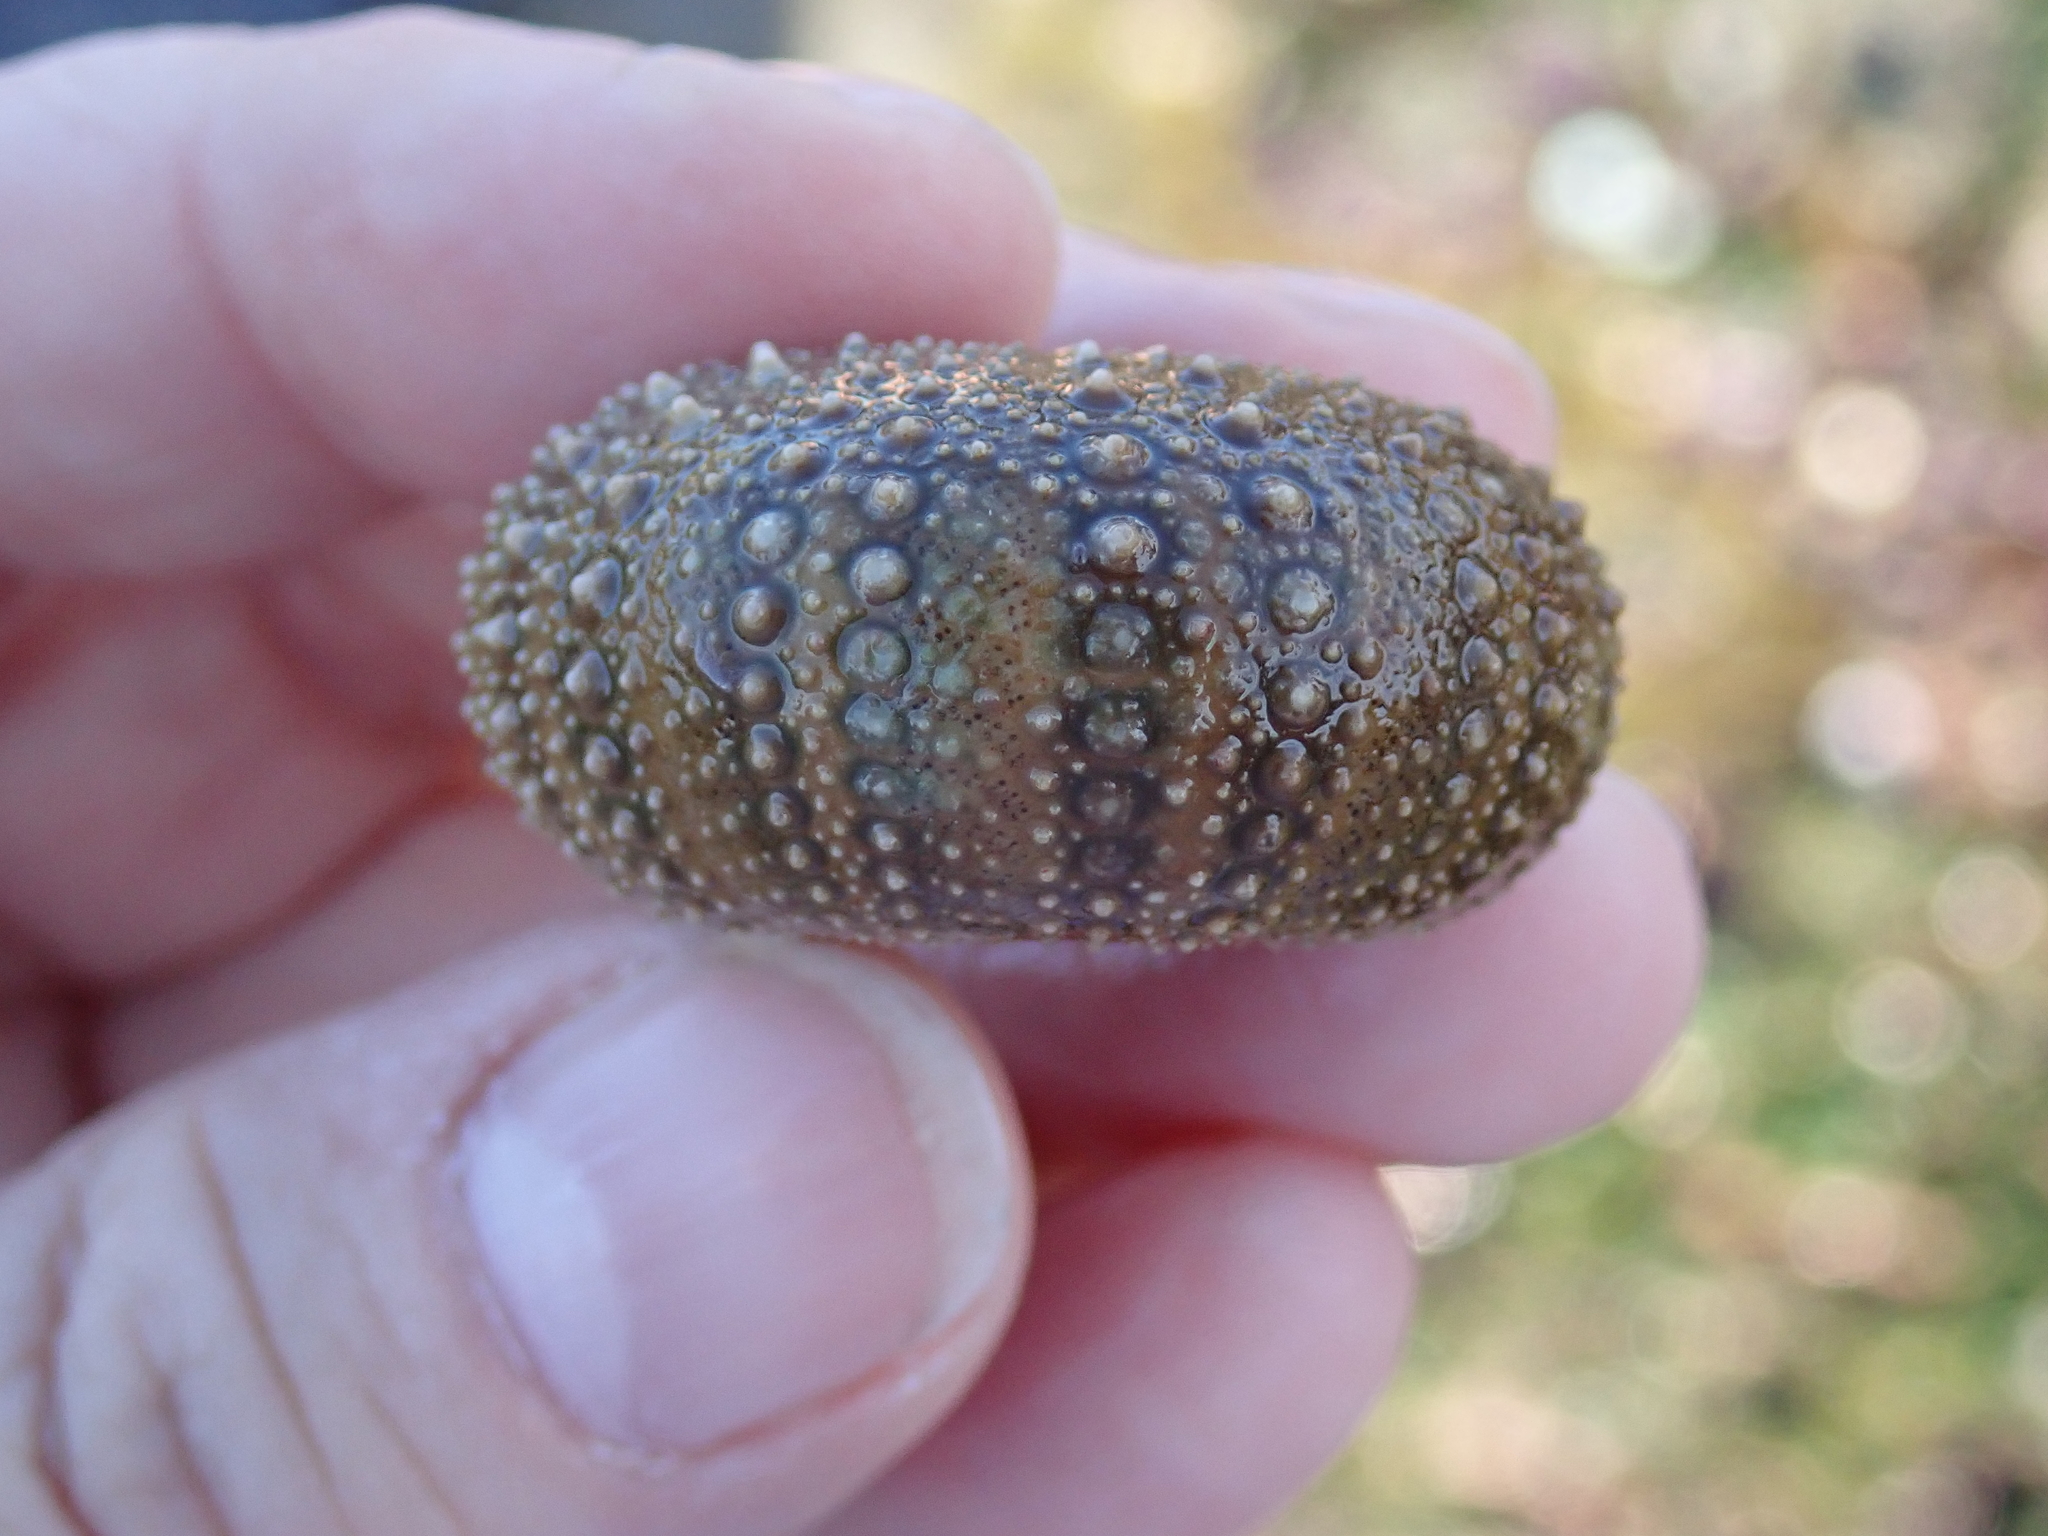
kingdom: Animalia
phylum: Echinodermata
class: Echinoidea
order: Camarodonta
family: Strongylocentrotidae
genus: Strongylocentrotus
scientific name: Strongylocentrotus purpuratus
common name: Purple sea urchin
